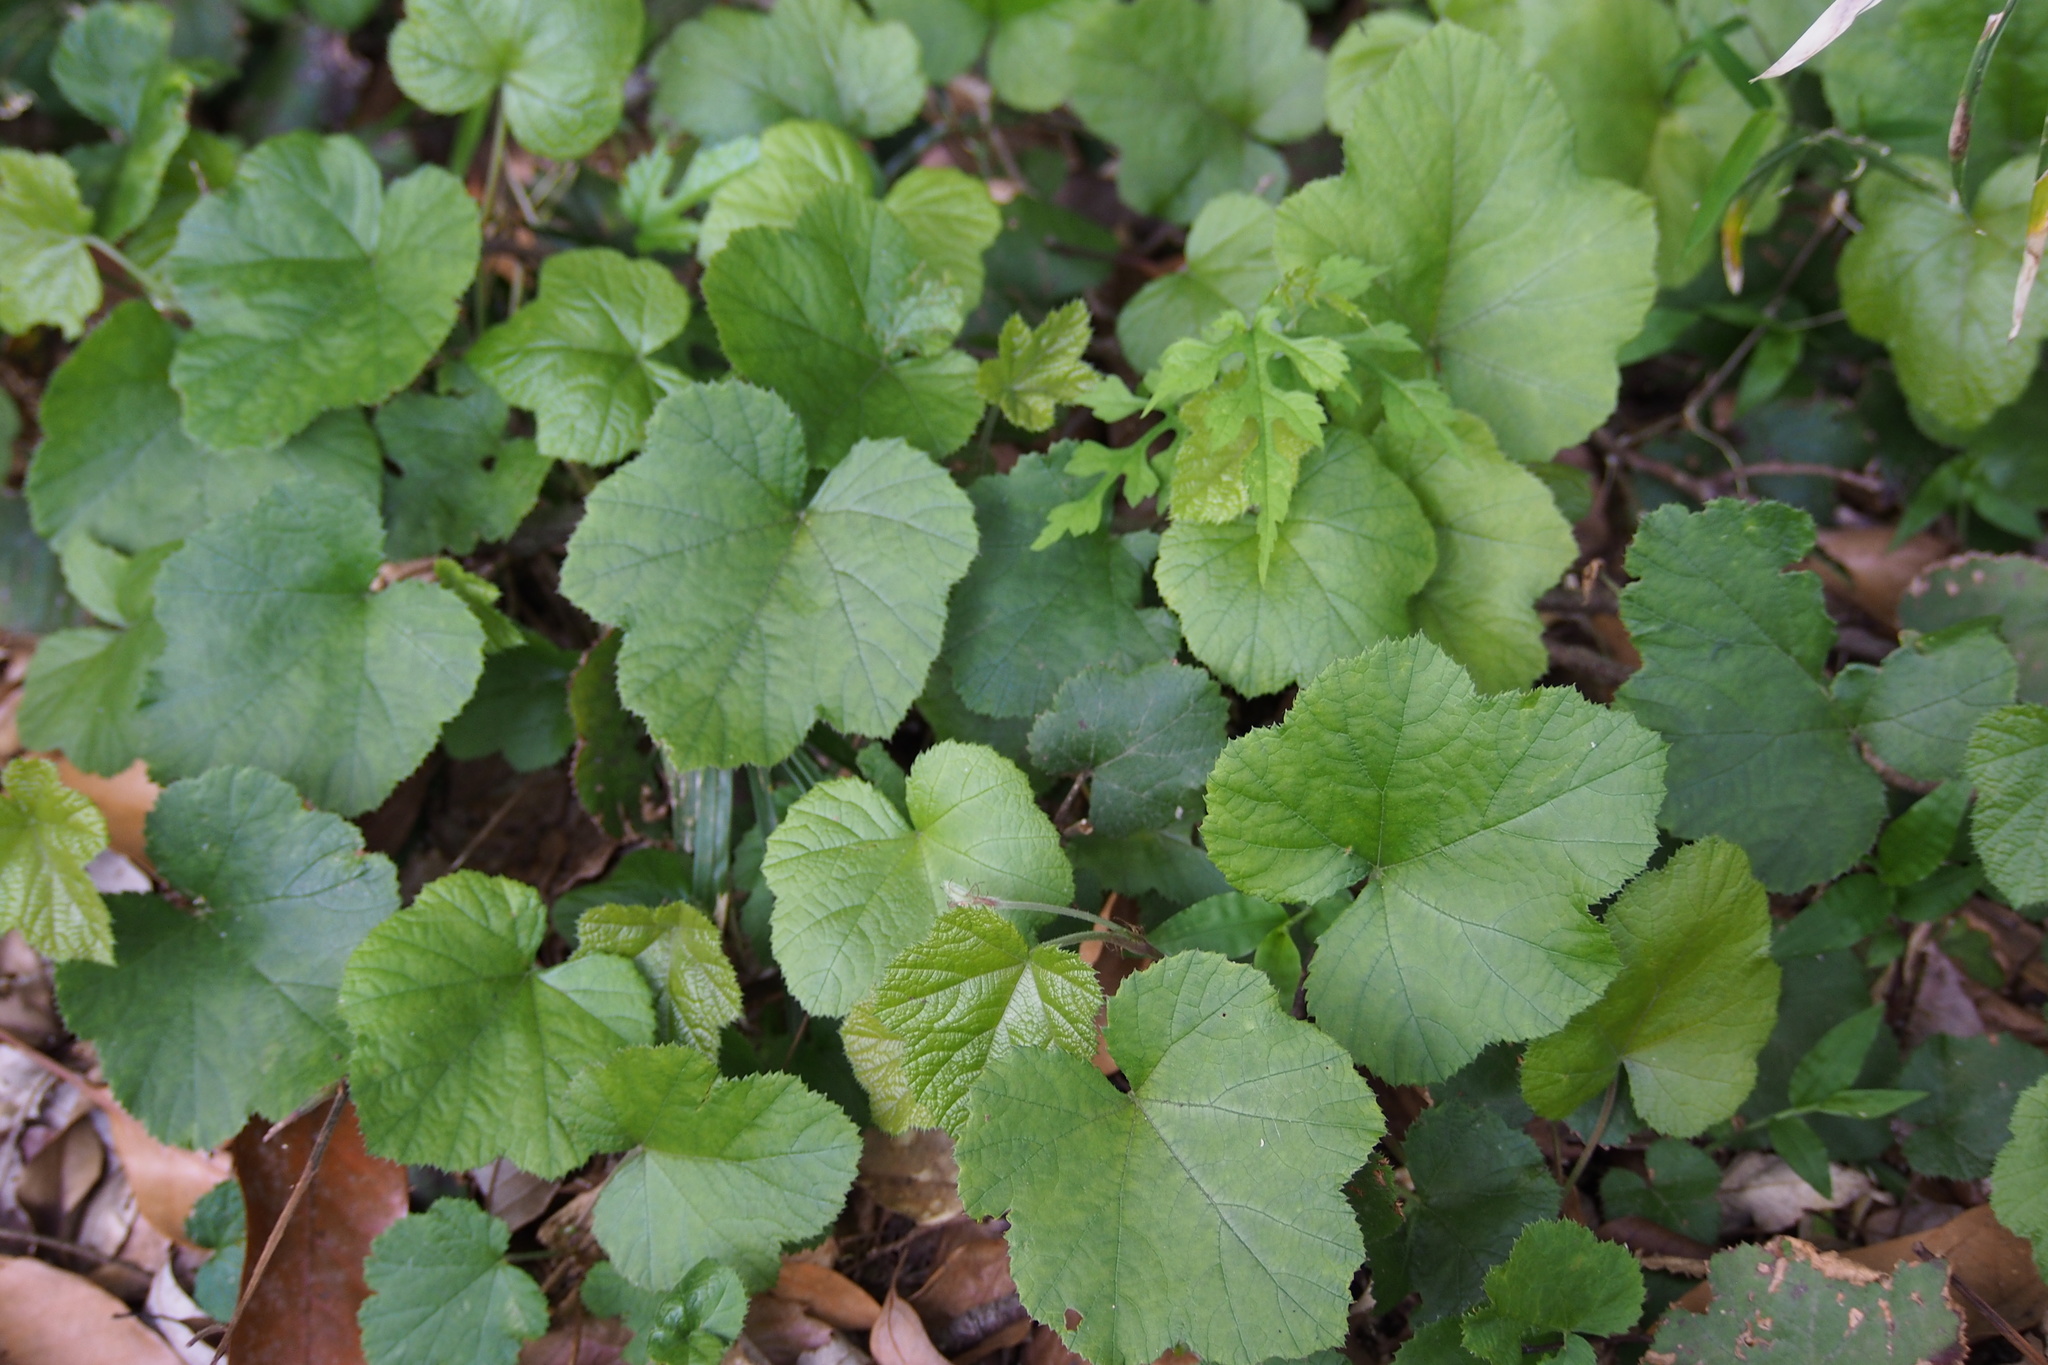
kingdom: Plantae
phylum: Tracheophyta
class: Magnoliopsida
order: Rosales
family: Rosaceae
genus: Rubus
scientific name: Rubus buergeri
